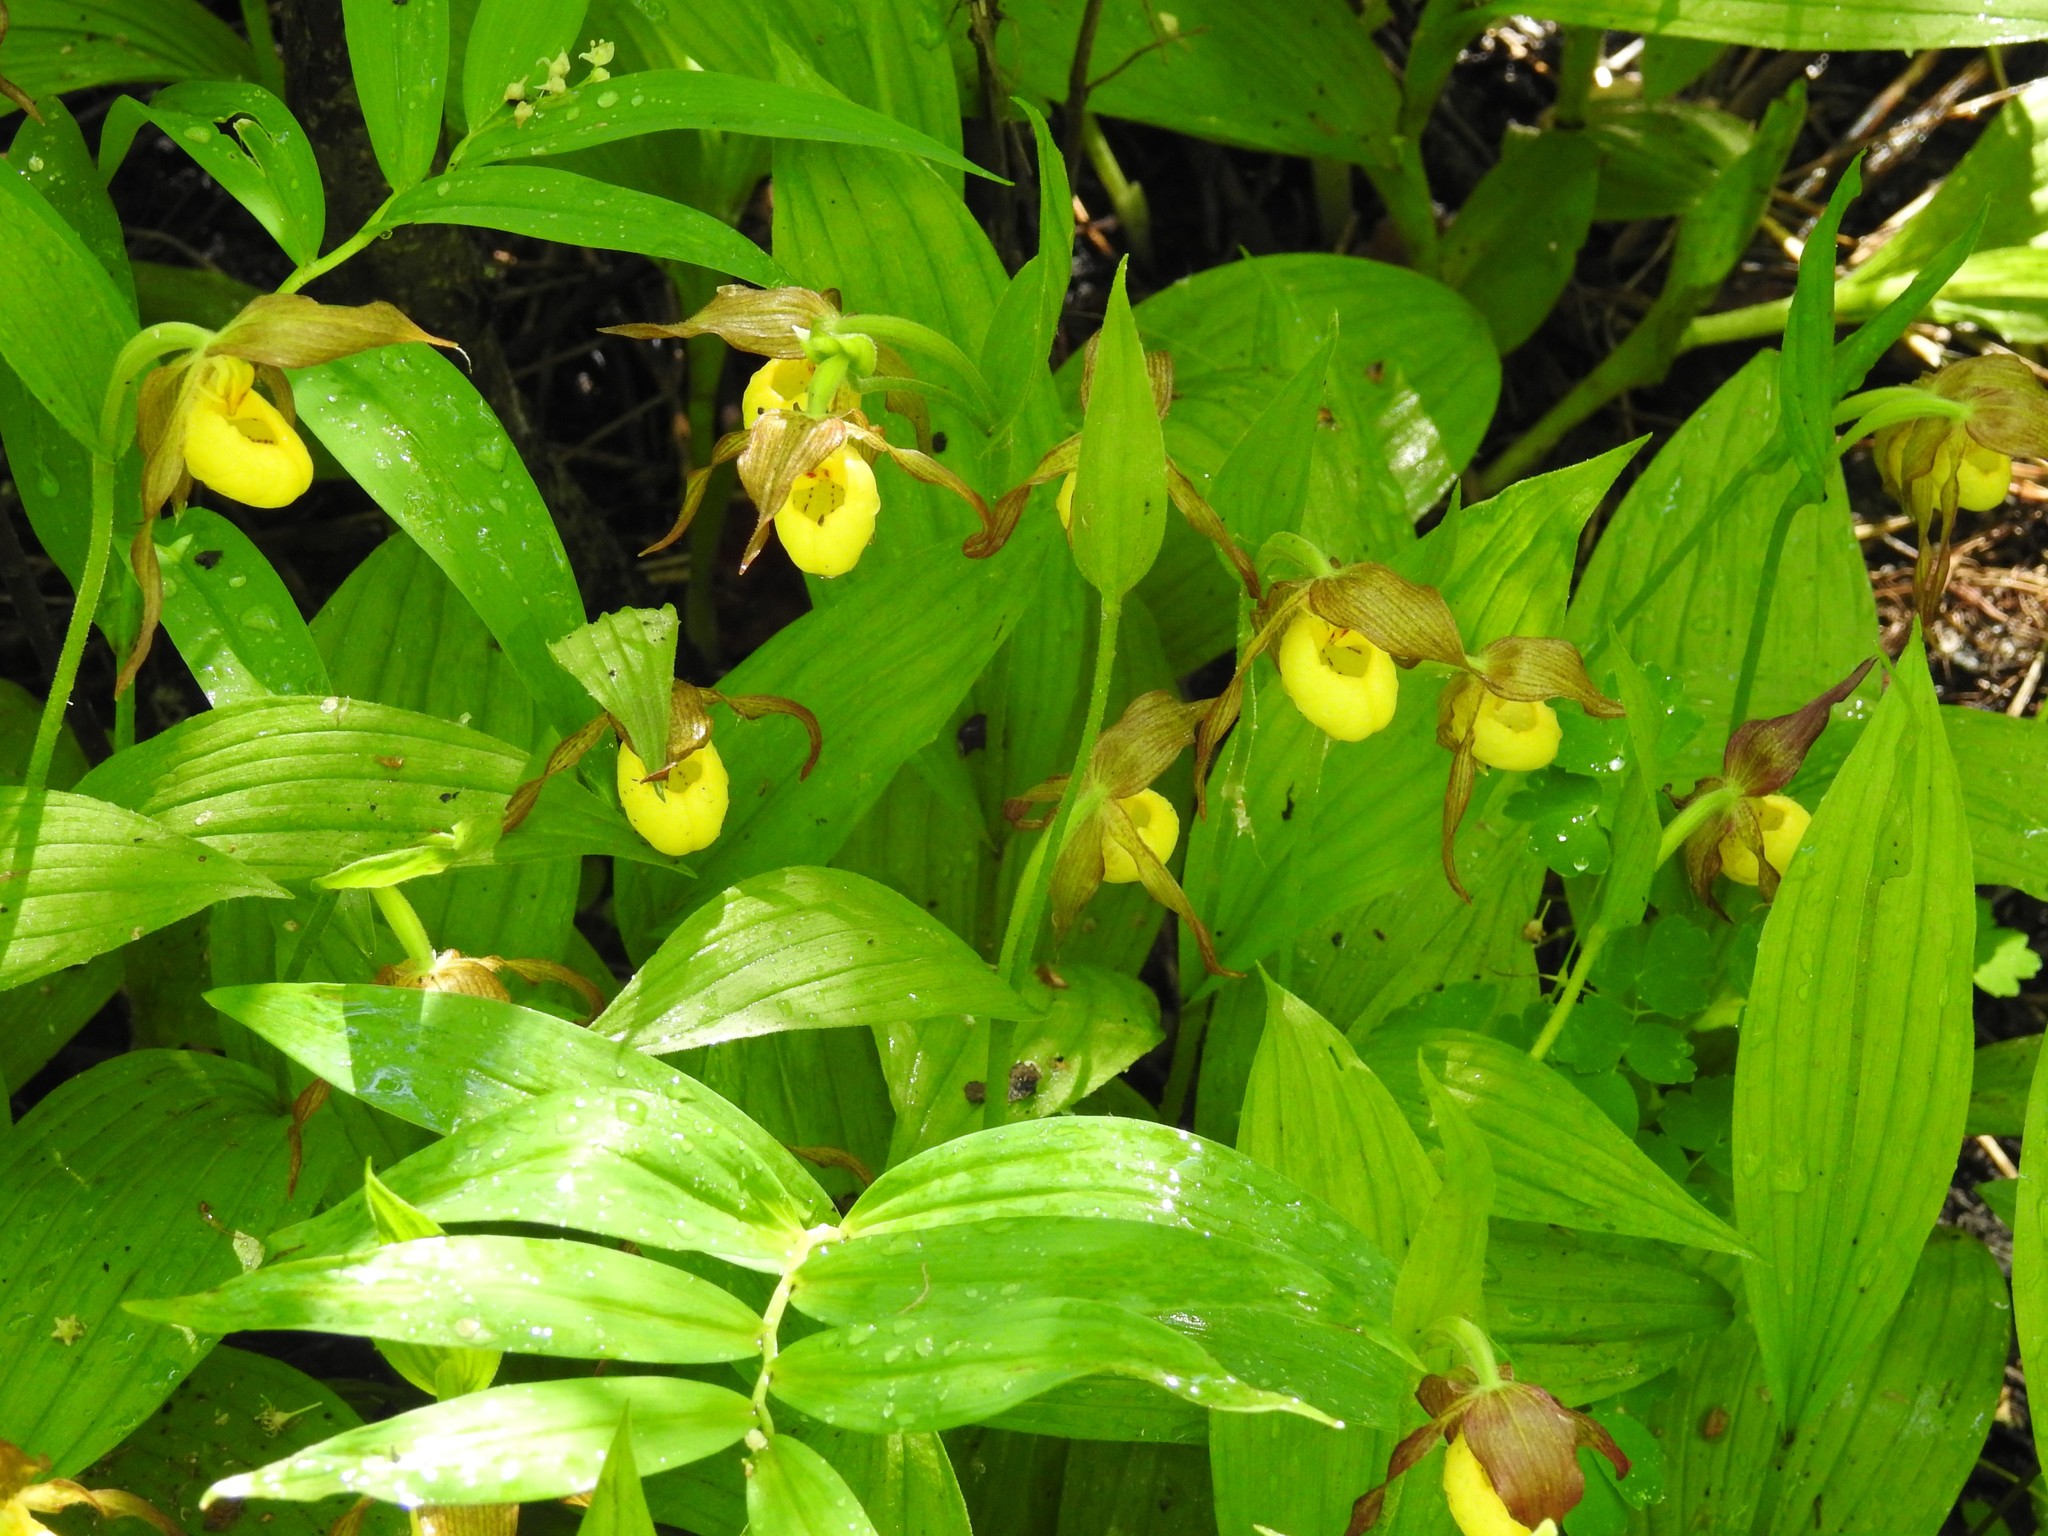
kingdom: Plantae
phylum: Tracheophyta
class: Liliopsida
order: Asparagales
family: Orchidaceae
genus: Cypripedium
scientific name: Cypripedium parviflorum
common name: American yellow lady's-slipper
